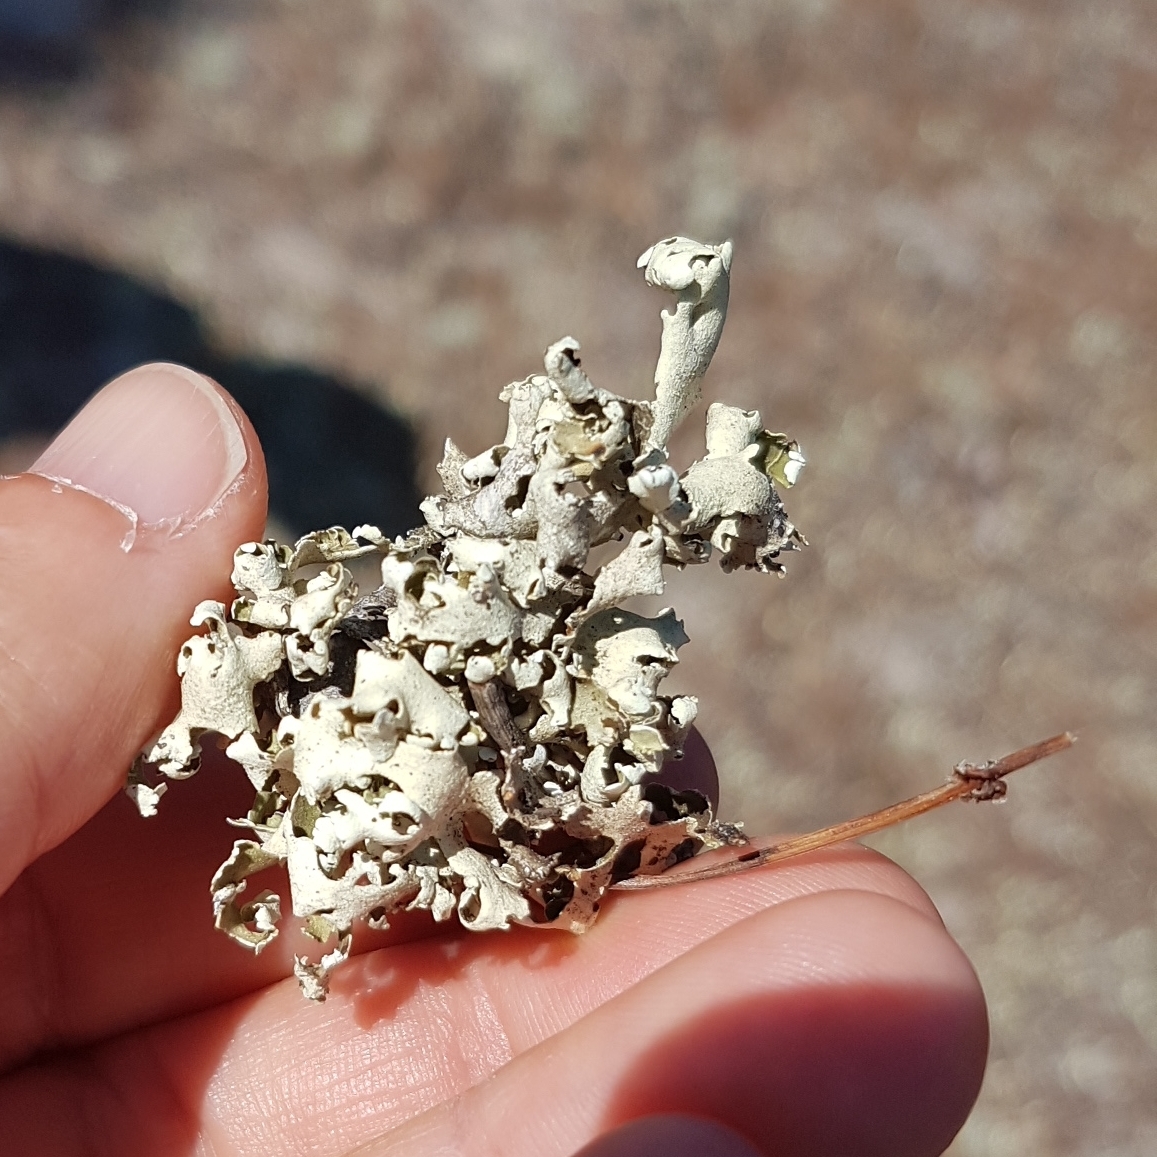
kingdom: Fungi
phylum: Ascomycota
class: Lecanoromycetes
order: Lecanorales
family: Cladoniaceae
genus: Cladonia
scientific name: Cladonia foliacea
